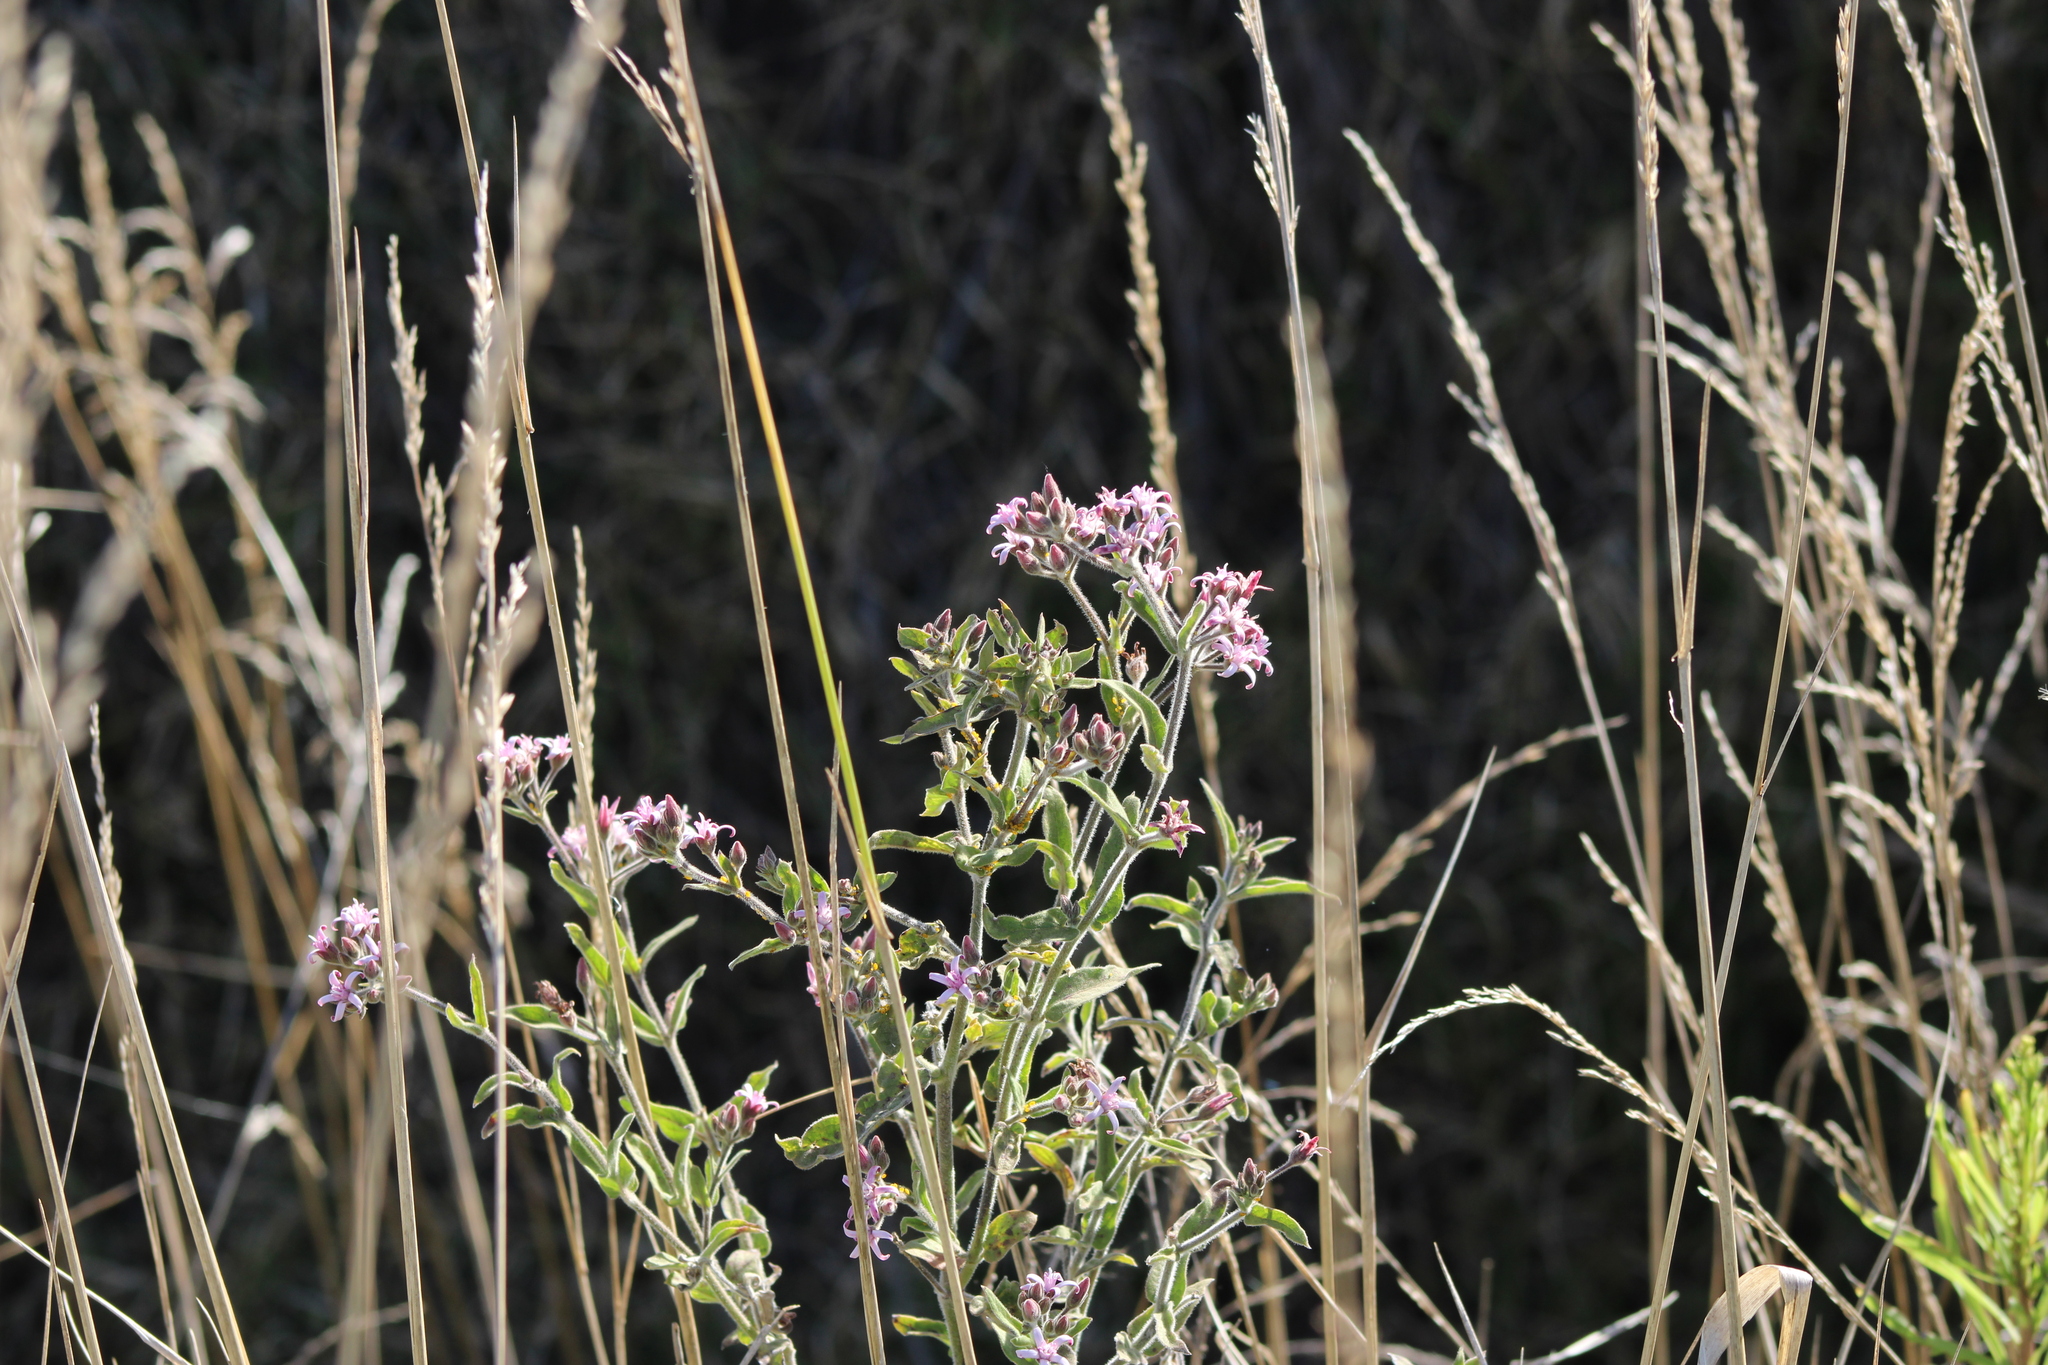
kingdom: Plantae
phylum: Tracheophyta
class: Magnoliopsida
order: Gentianales
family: Apocynaceae
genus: Oxypetalum
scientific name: Oxypetalum solanoides
